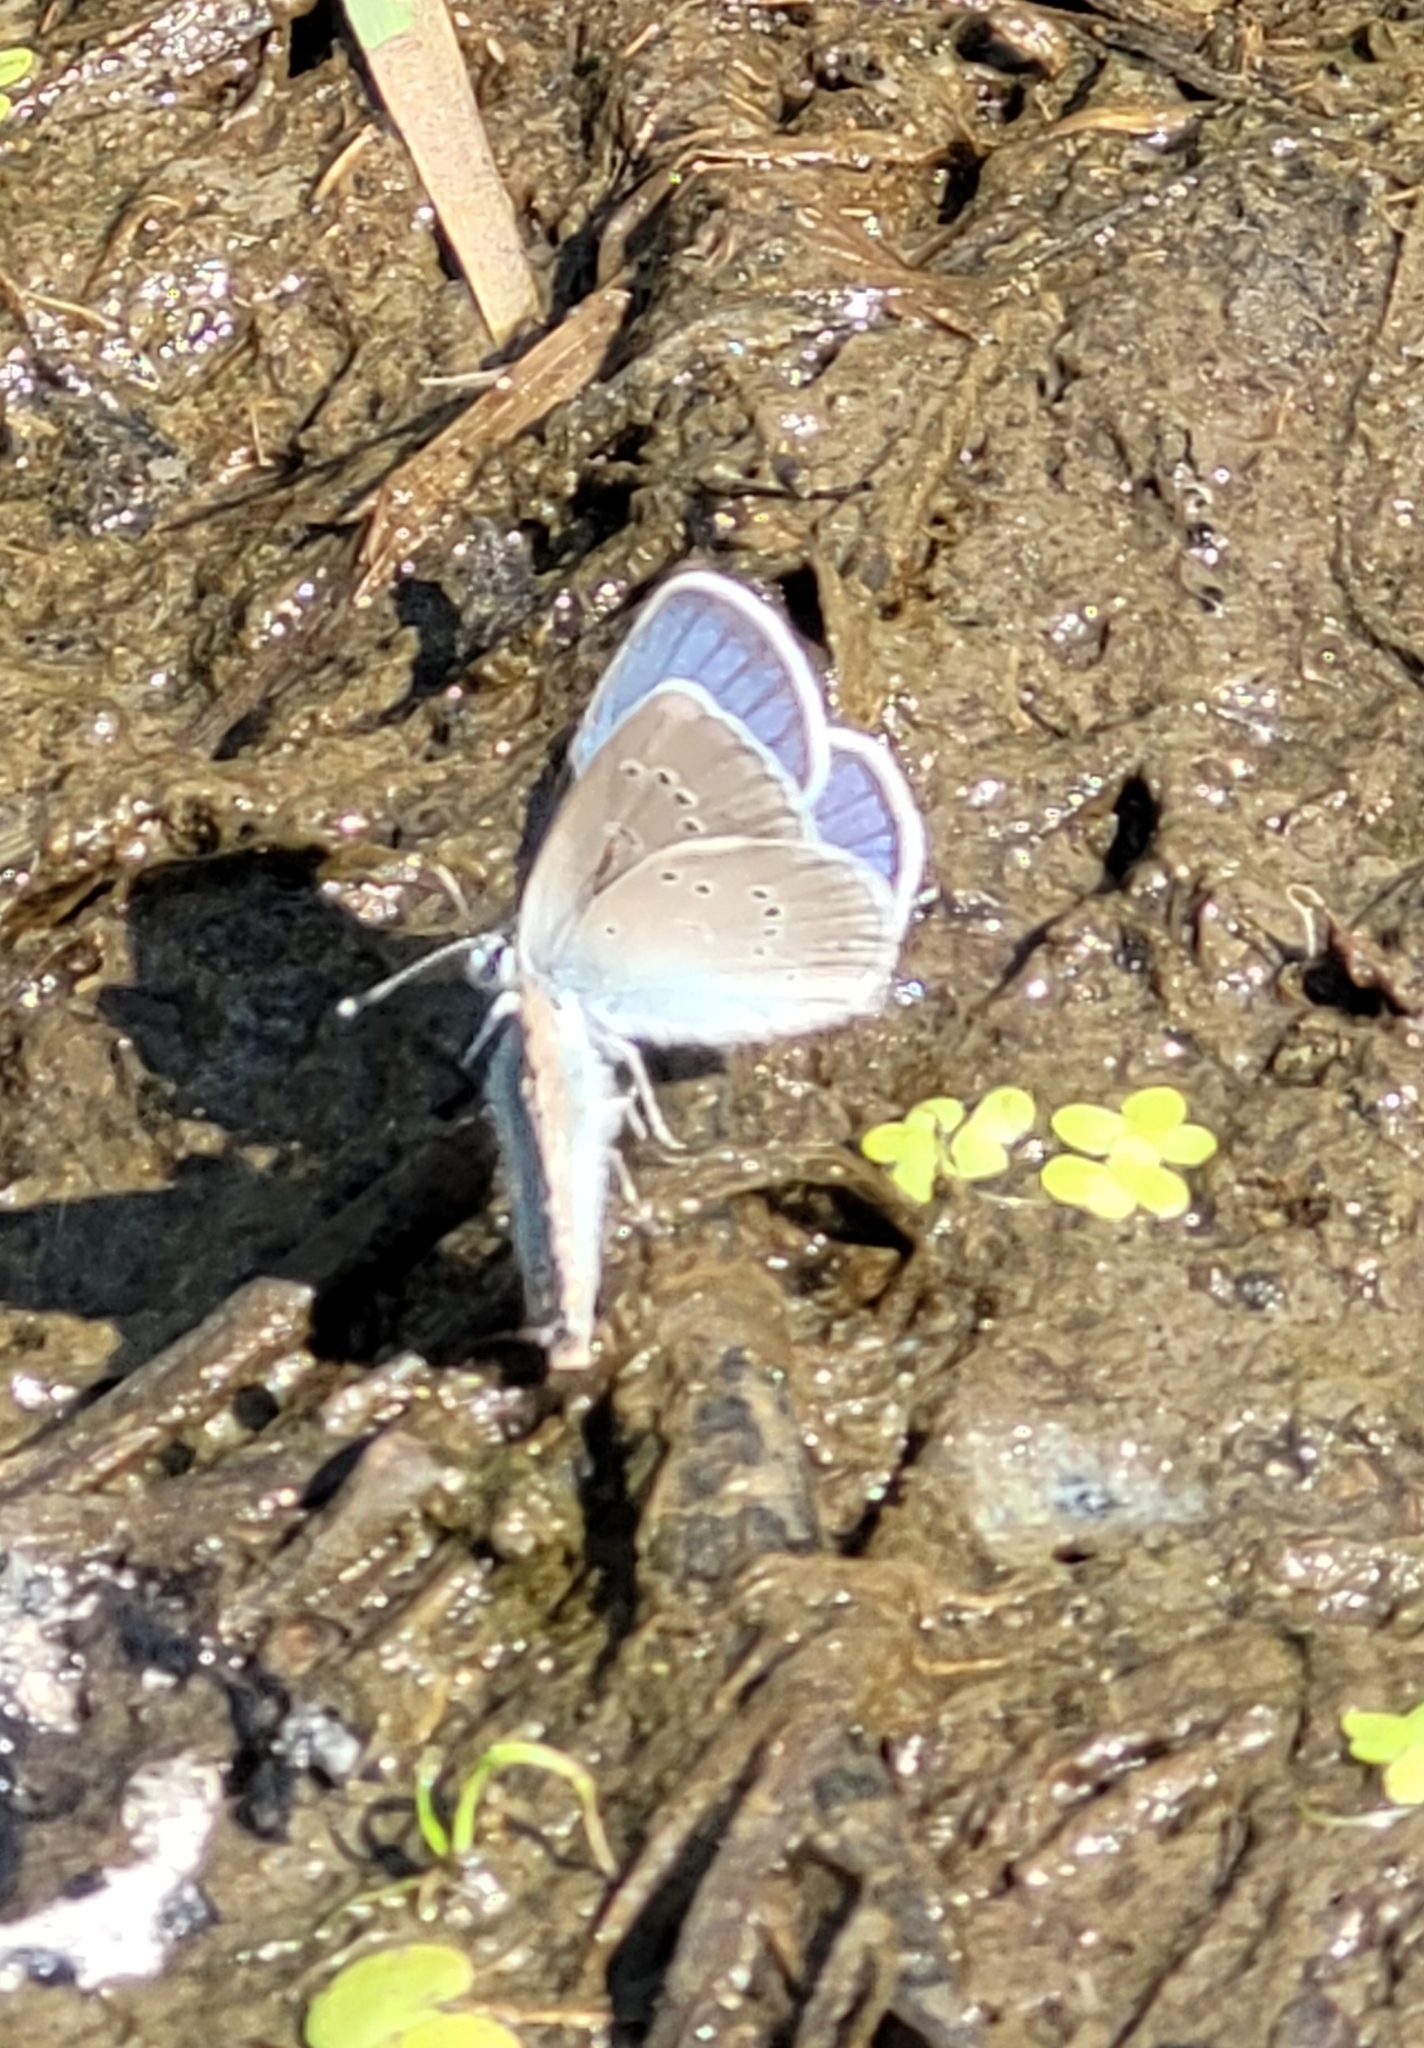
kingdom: Animalia
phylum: Arthropoda
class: Insecta
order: Lepidoptera
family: Lycaenidae
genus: Cyaniris
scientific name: Cyaniris semiargus
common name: Mazarine blue
